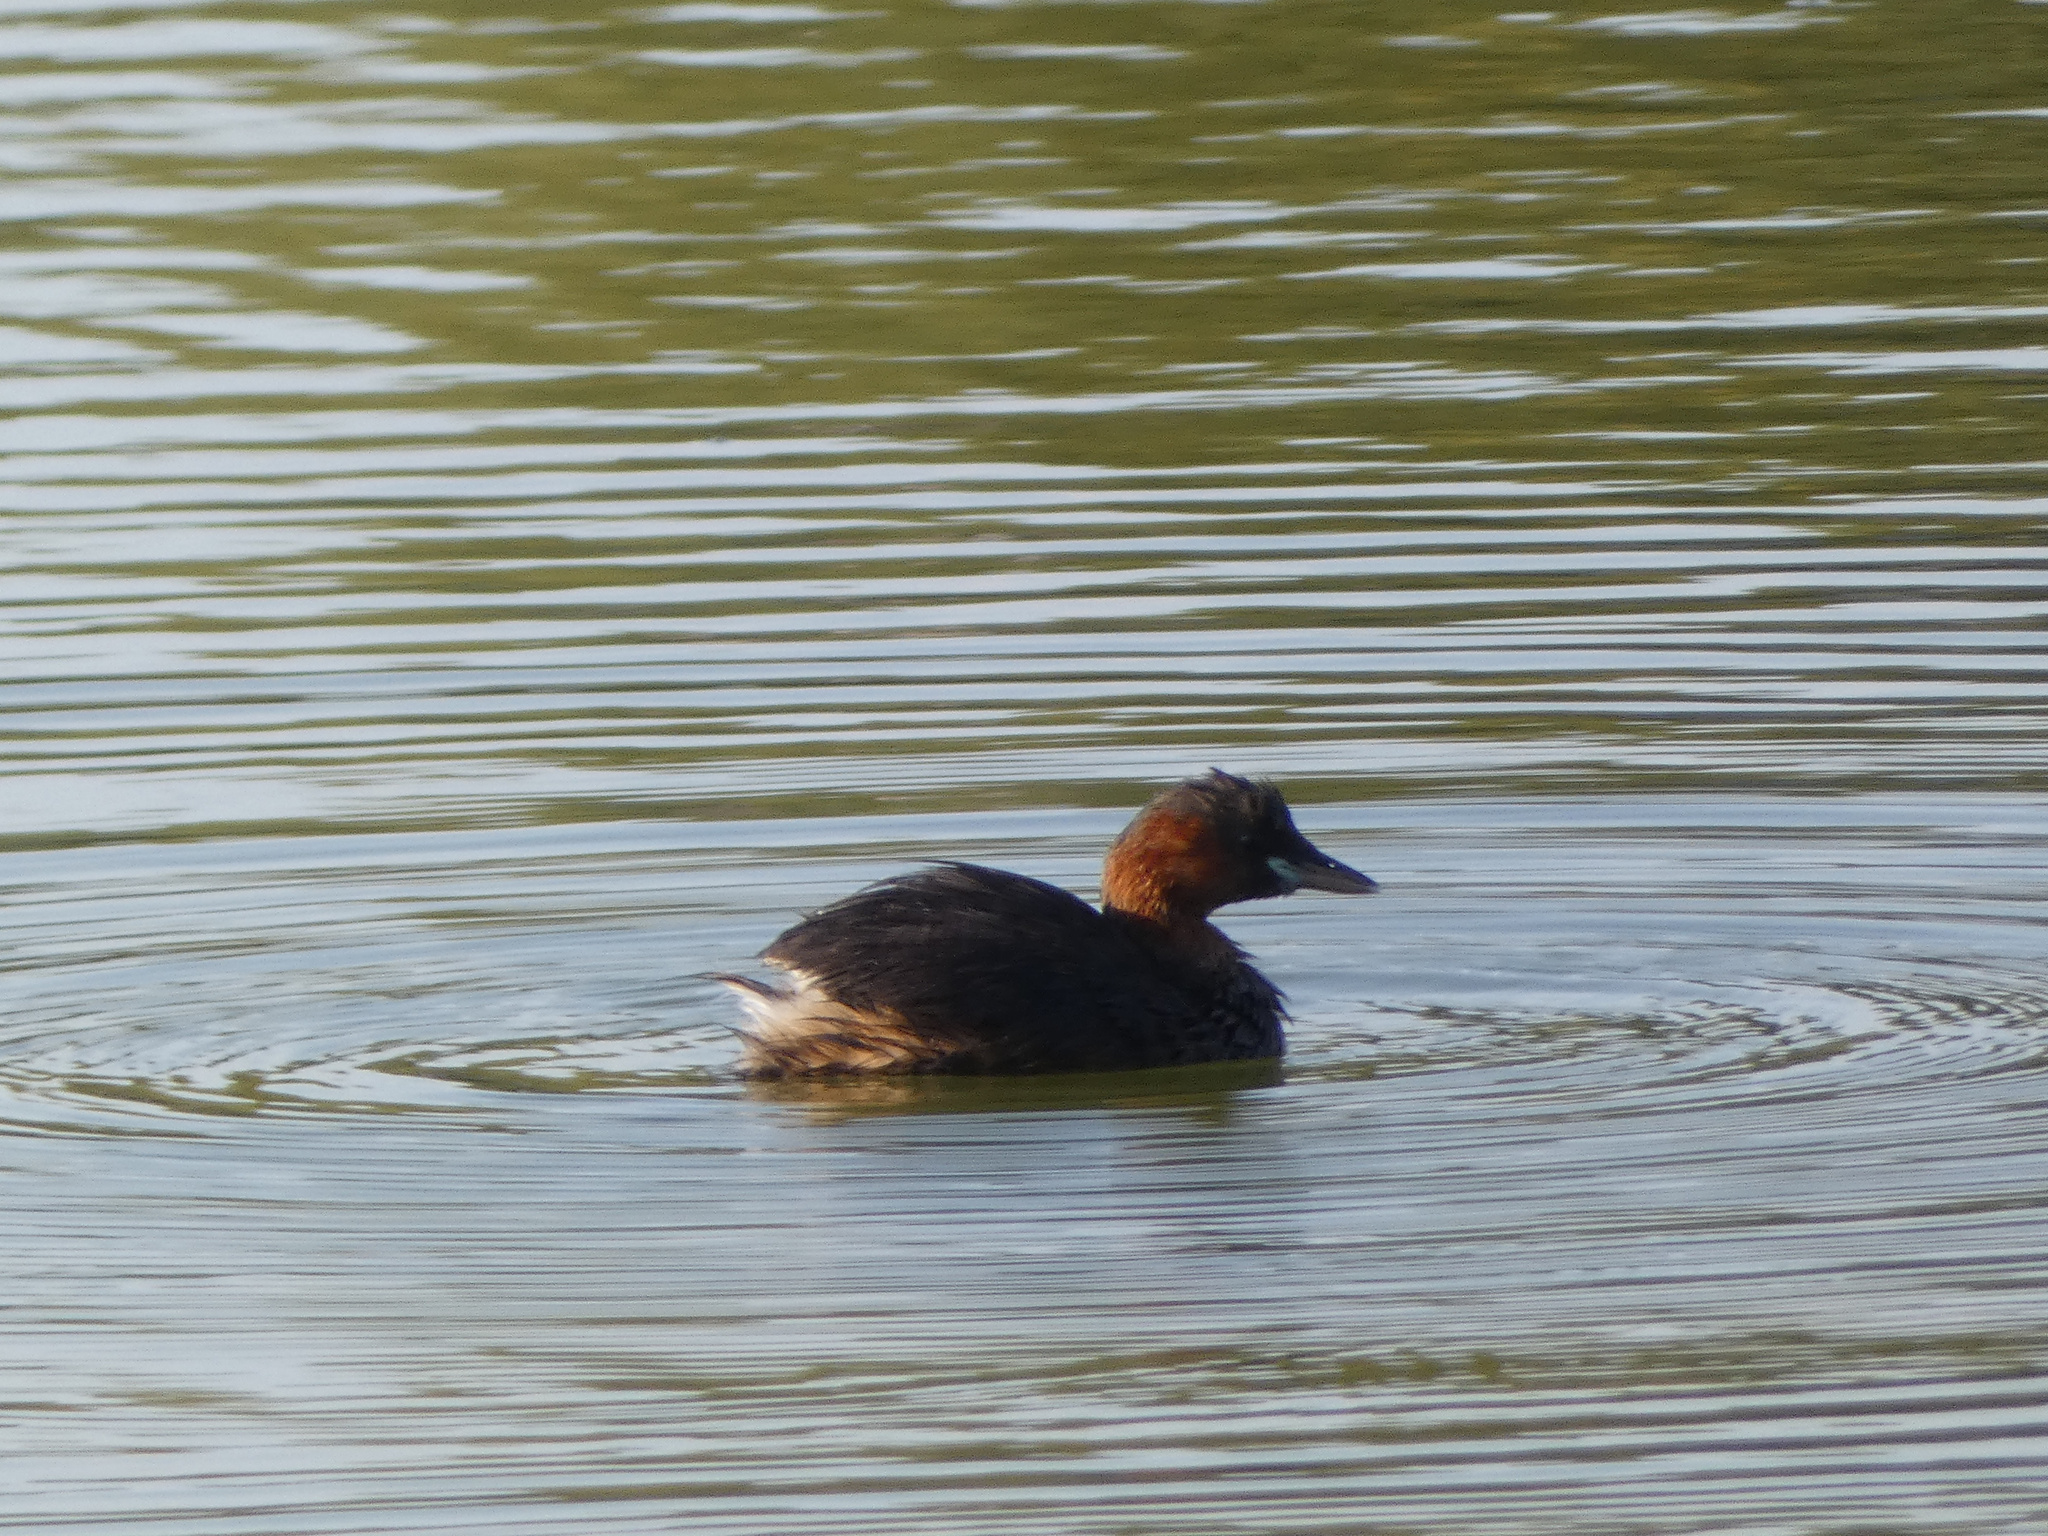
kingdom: Animalia
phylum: Chordata
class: Aves
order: Podicipediformes
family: Podicipedidae
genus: Tachybaptus
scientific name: Tachybaptus ruficollis
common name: Little grebe
